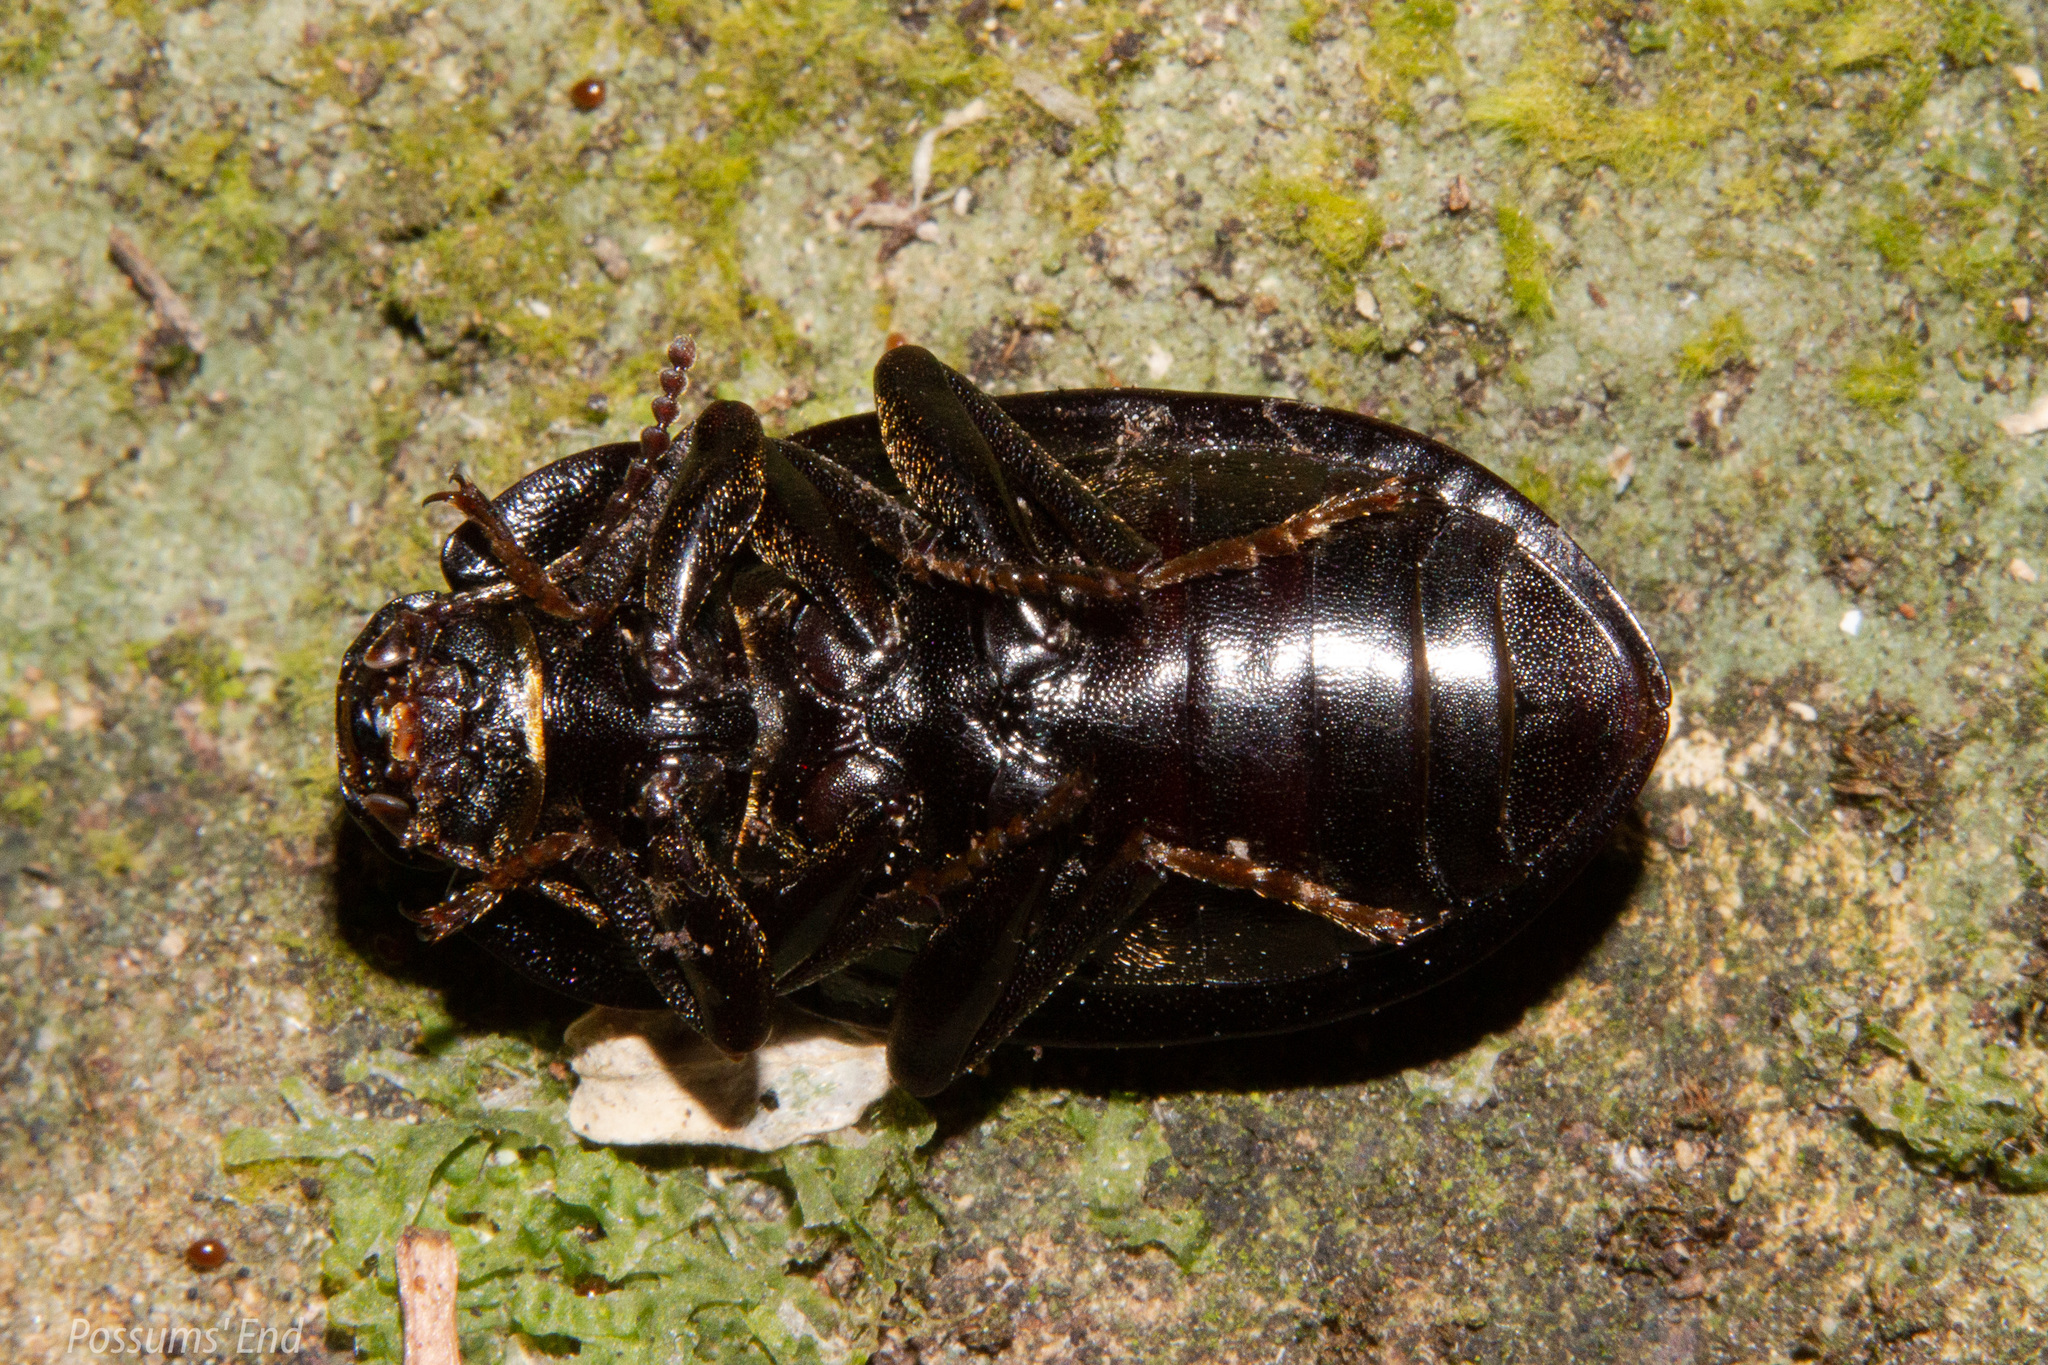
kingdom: Animalia
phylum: Arthropoda
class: Insecta
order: Coleoptera
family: Tenebrionidae
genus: Mimopeus
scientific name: Mimopeus
